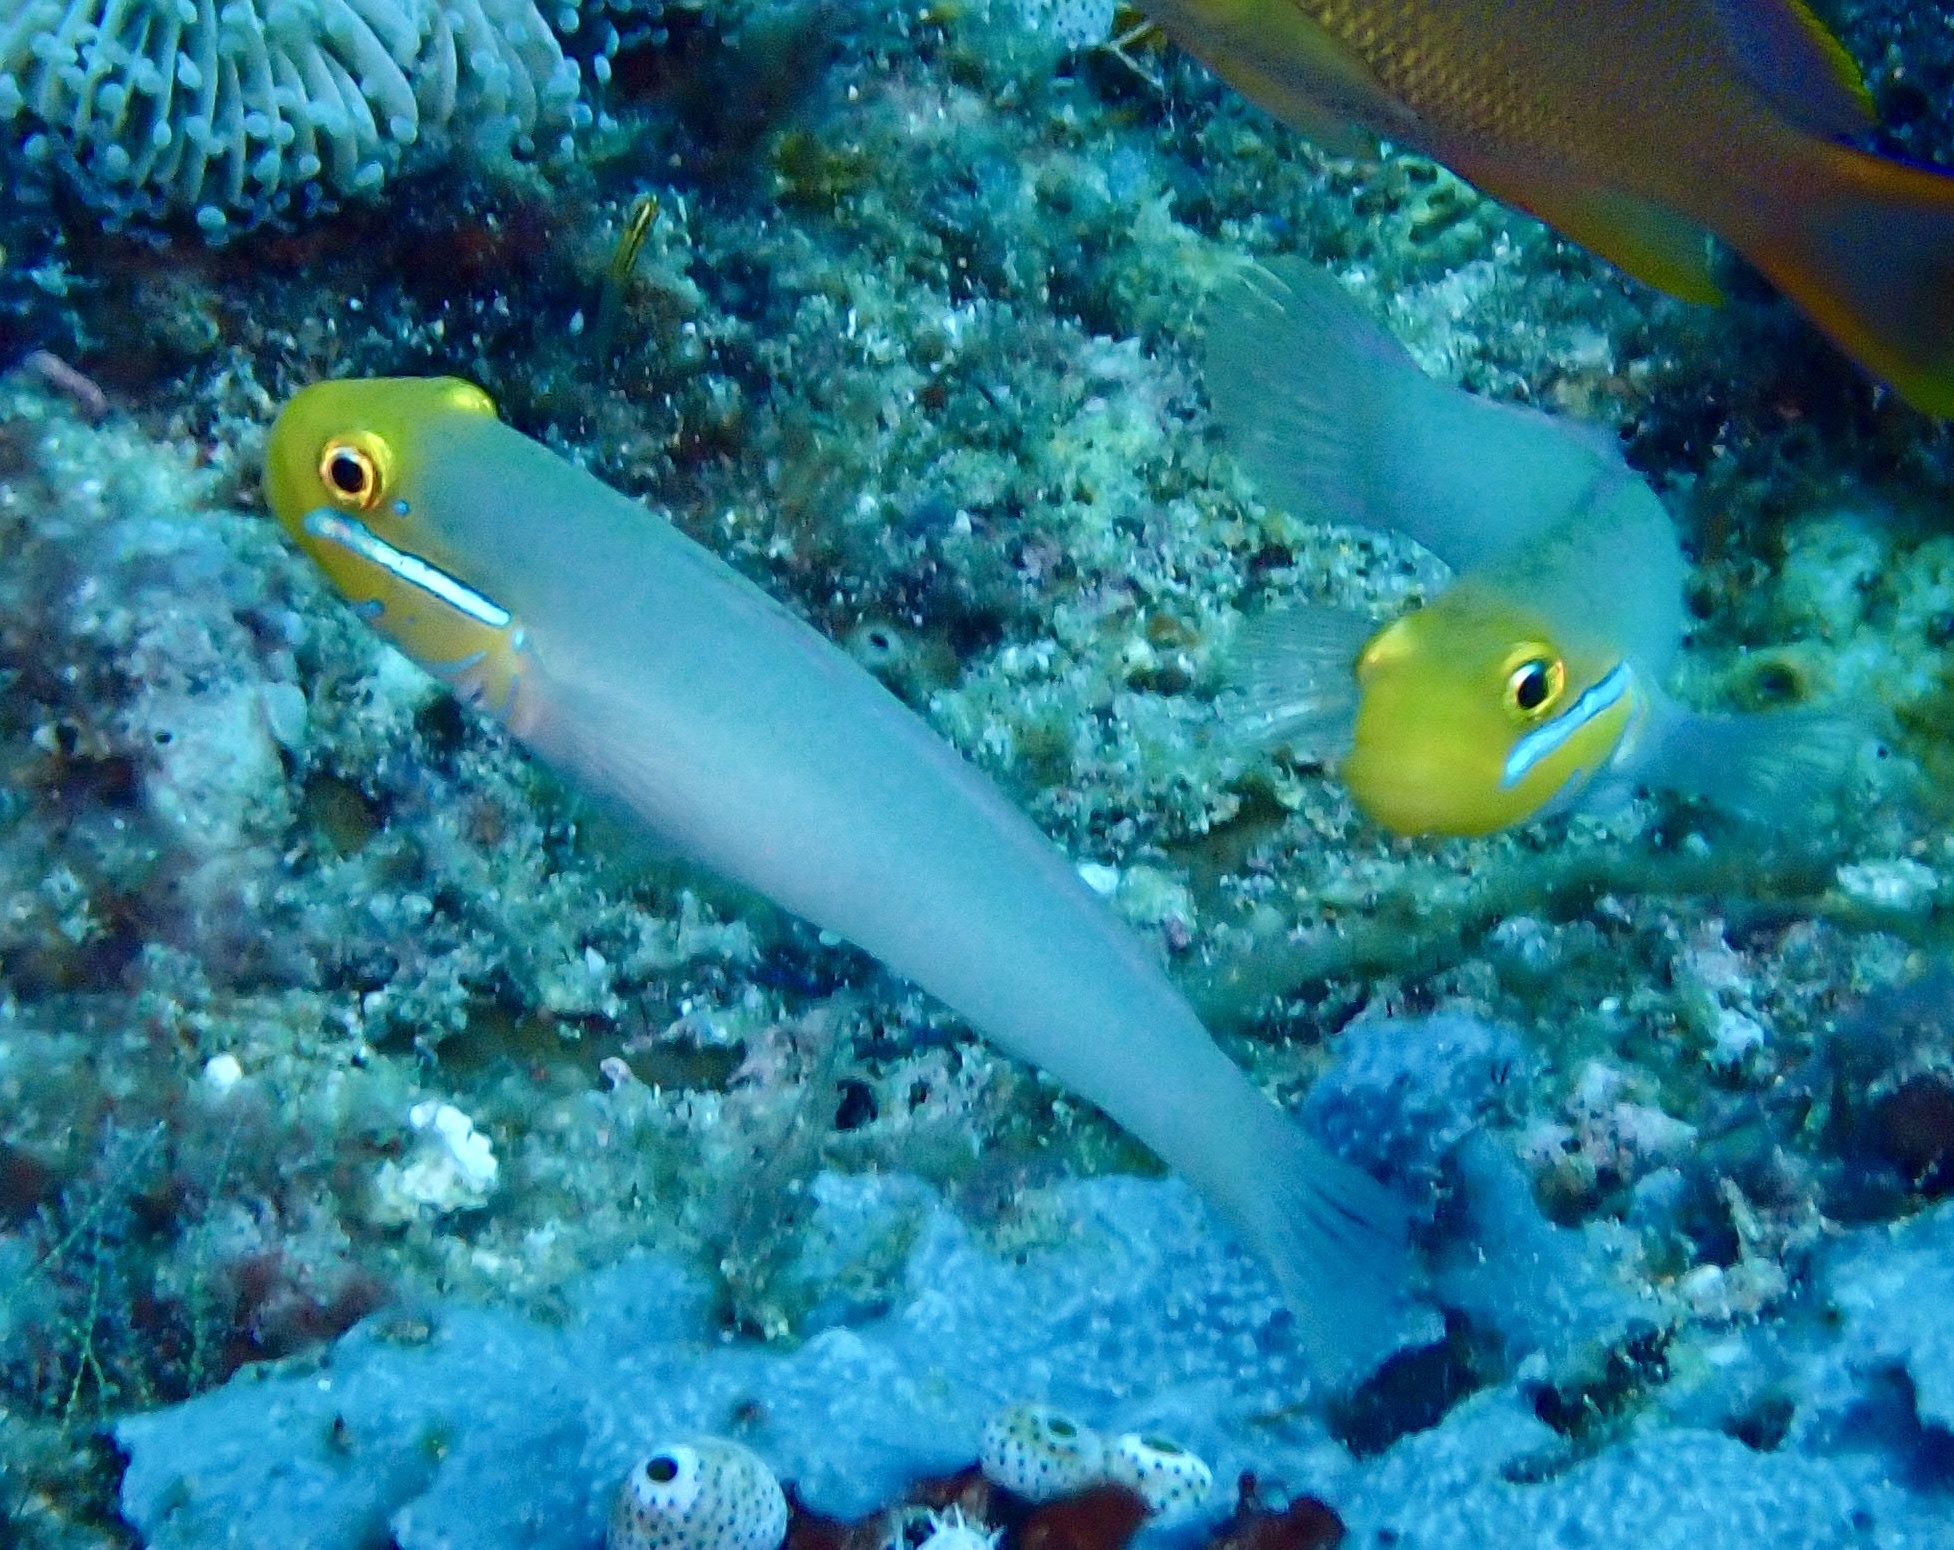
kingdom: Animalia
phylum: Chordata
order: Perciformes
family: Gobiidae
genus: Valenciennea
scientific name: Valenciennea strigata
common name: Blueband goby
